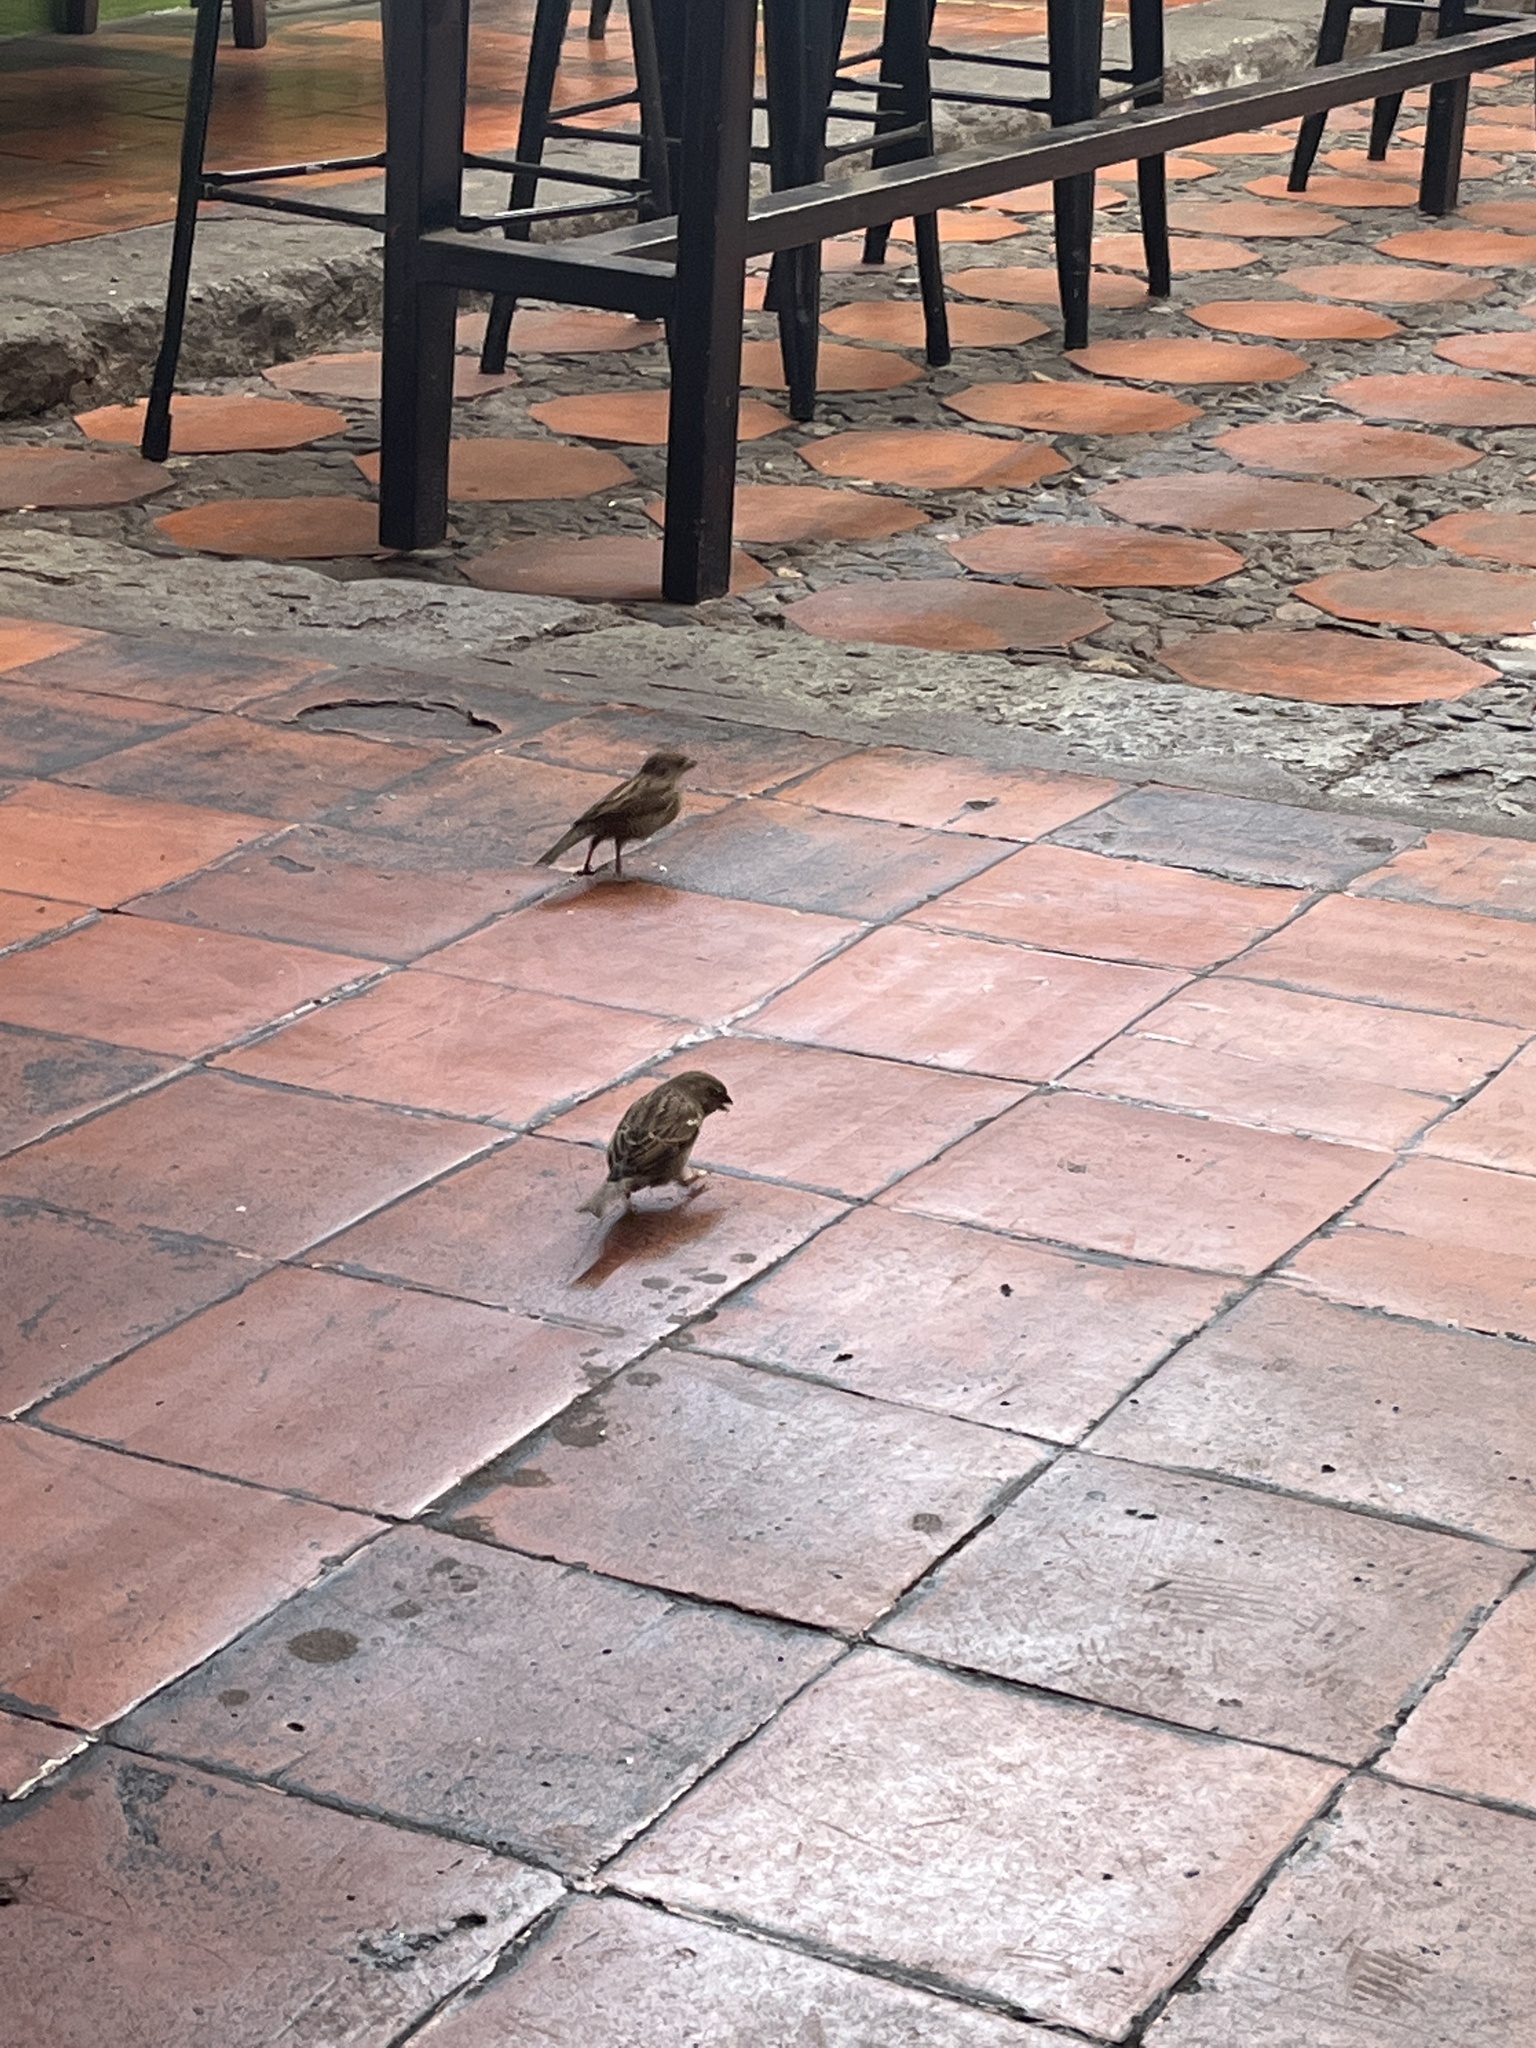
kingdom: Animalia
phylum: Chordata
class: Aves
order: Passeriformes
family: Passeridae
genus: Passer
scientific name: Passer domesticus
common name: House sparrow
